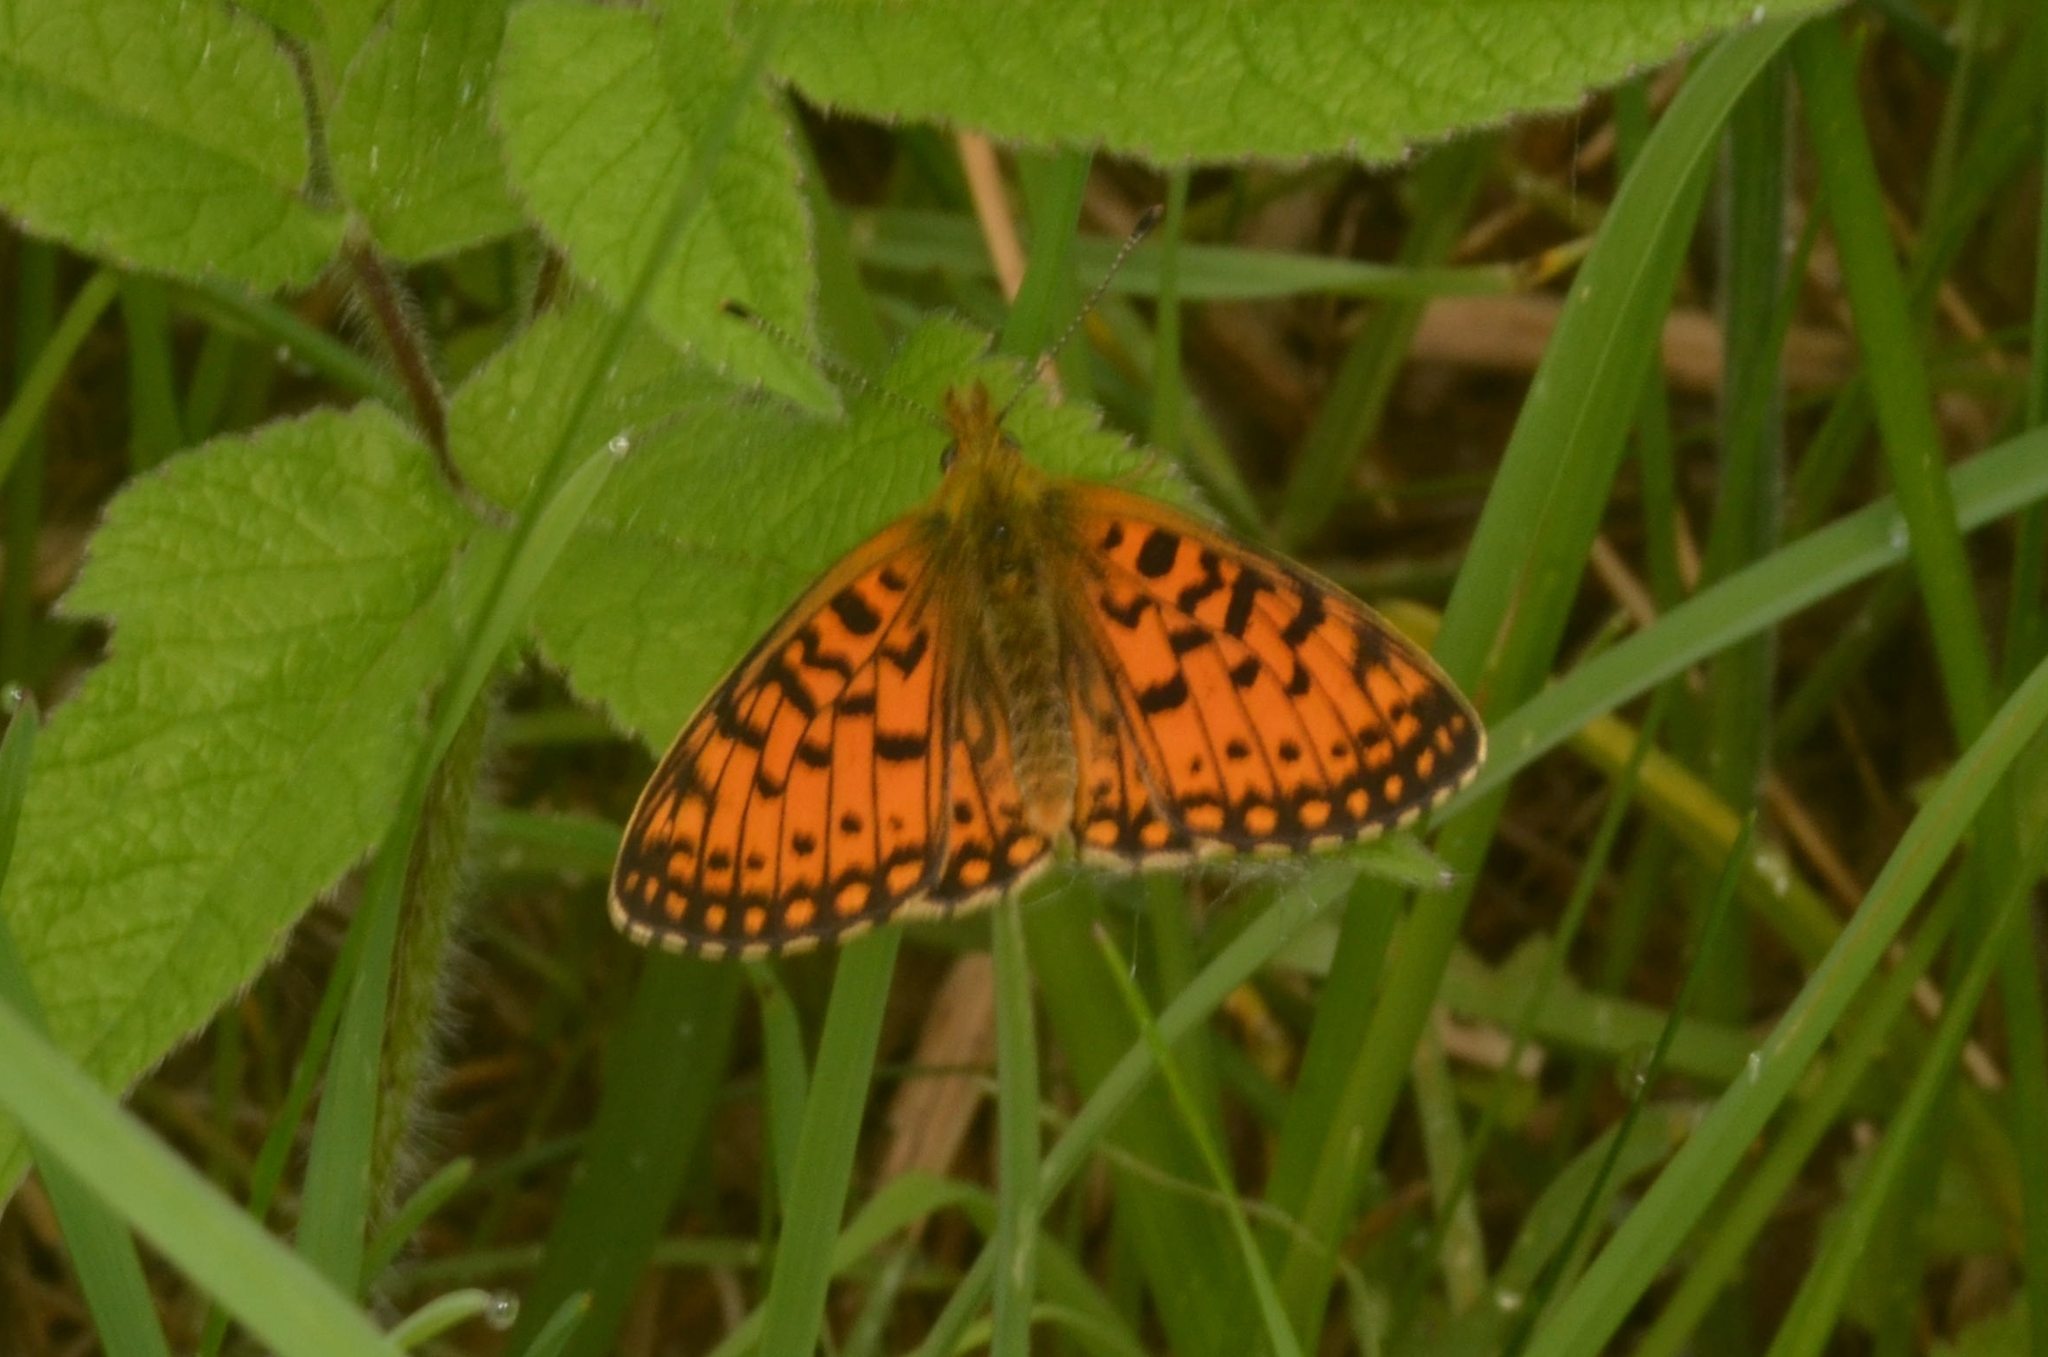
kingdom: Animalia
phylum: Arthropoda
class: Insecta
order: Lepidoptera
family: Nymphalidae
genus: Boloria
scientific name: Boloria selene
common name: Small pearl-bordered fritillary
